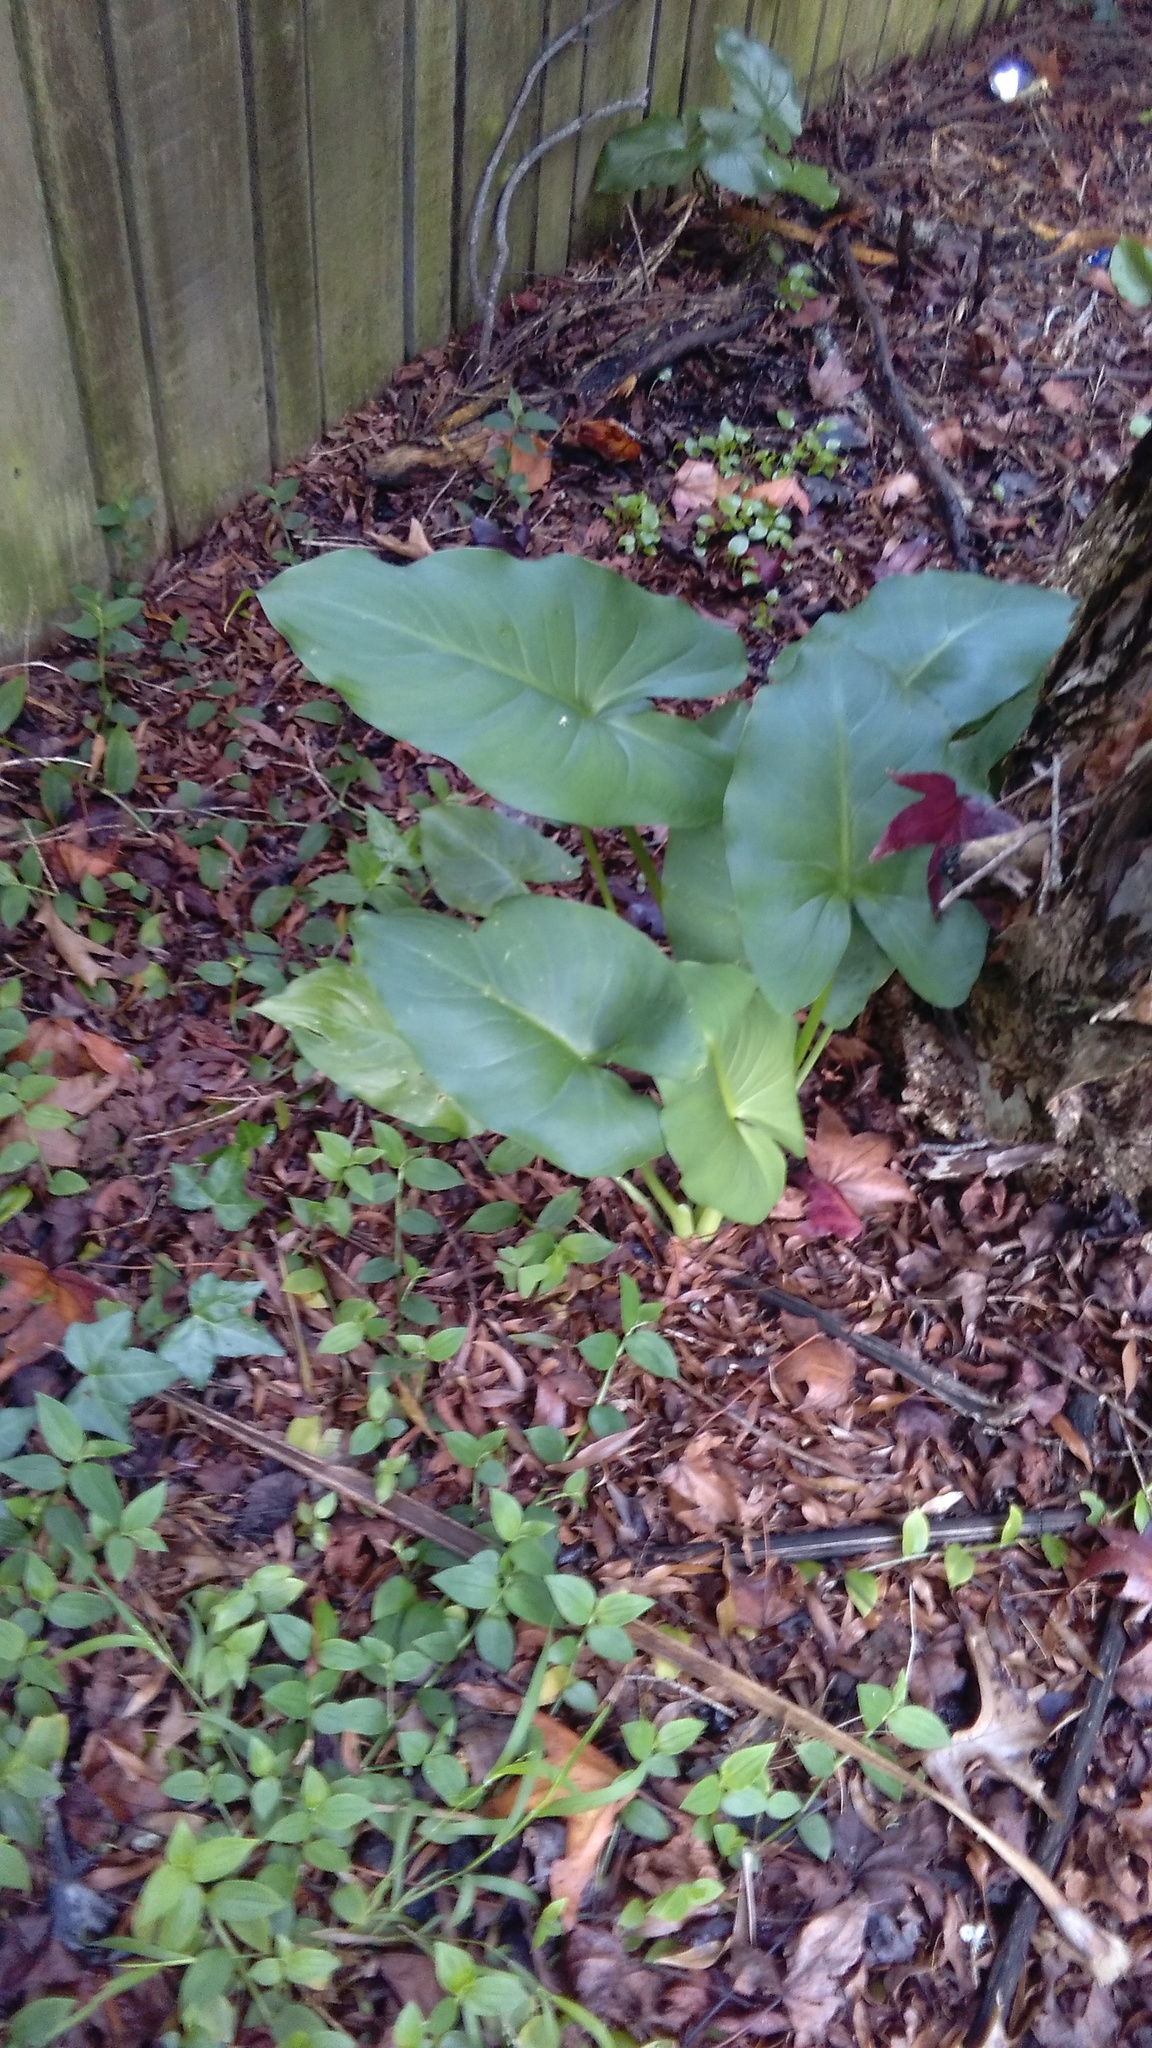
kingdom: Plantae
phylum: Tracheophyta
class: Liliopsida
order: Alismatales
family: Araceae
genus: Zantedeschia
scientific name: Zantedeschia aethiopica
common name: Altar-lily
